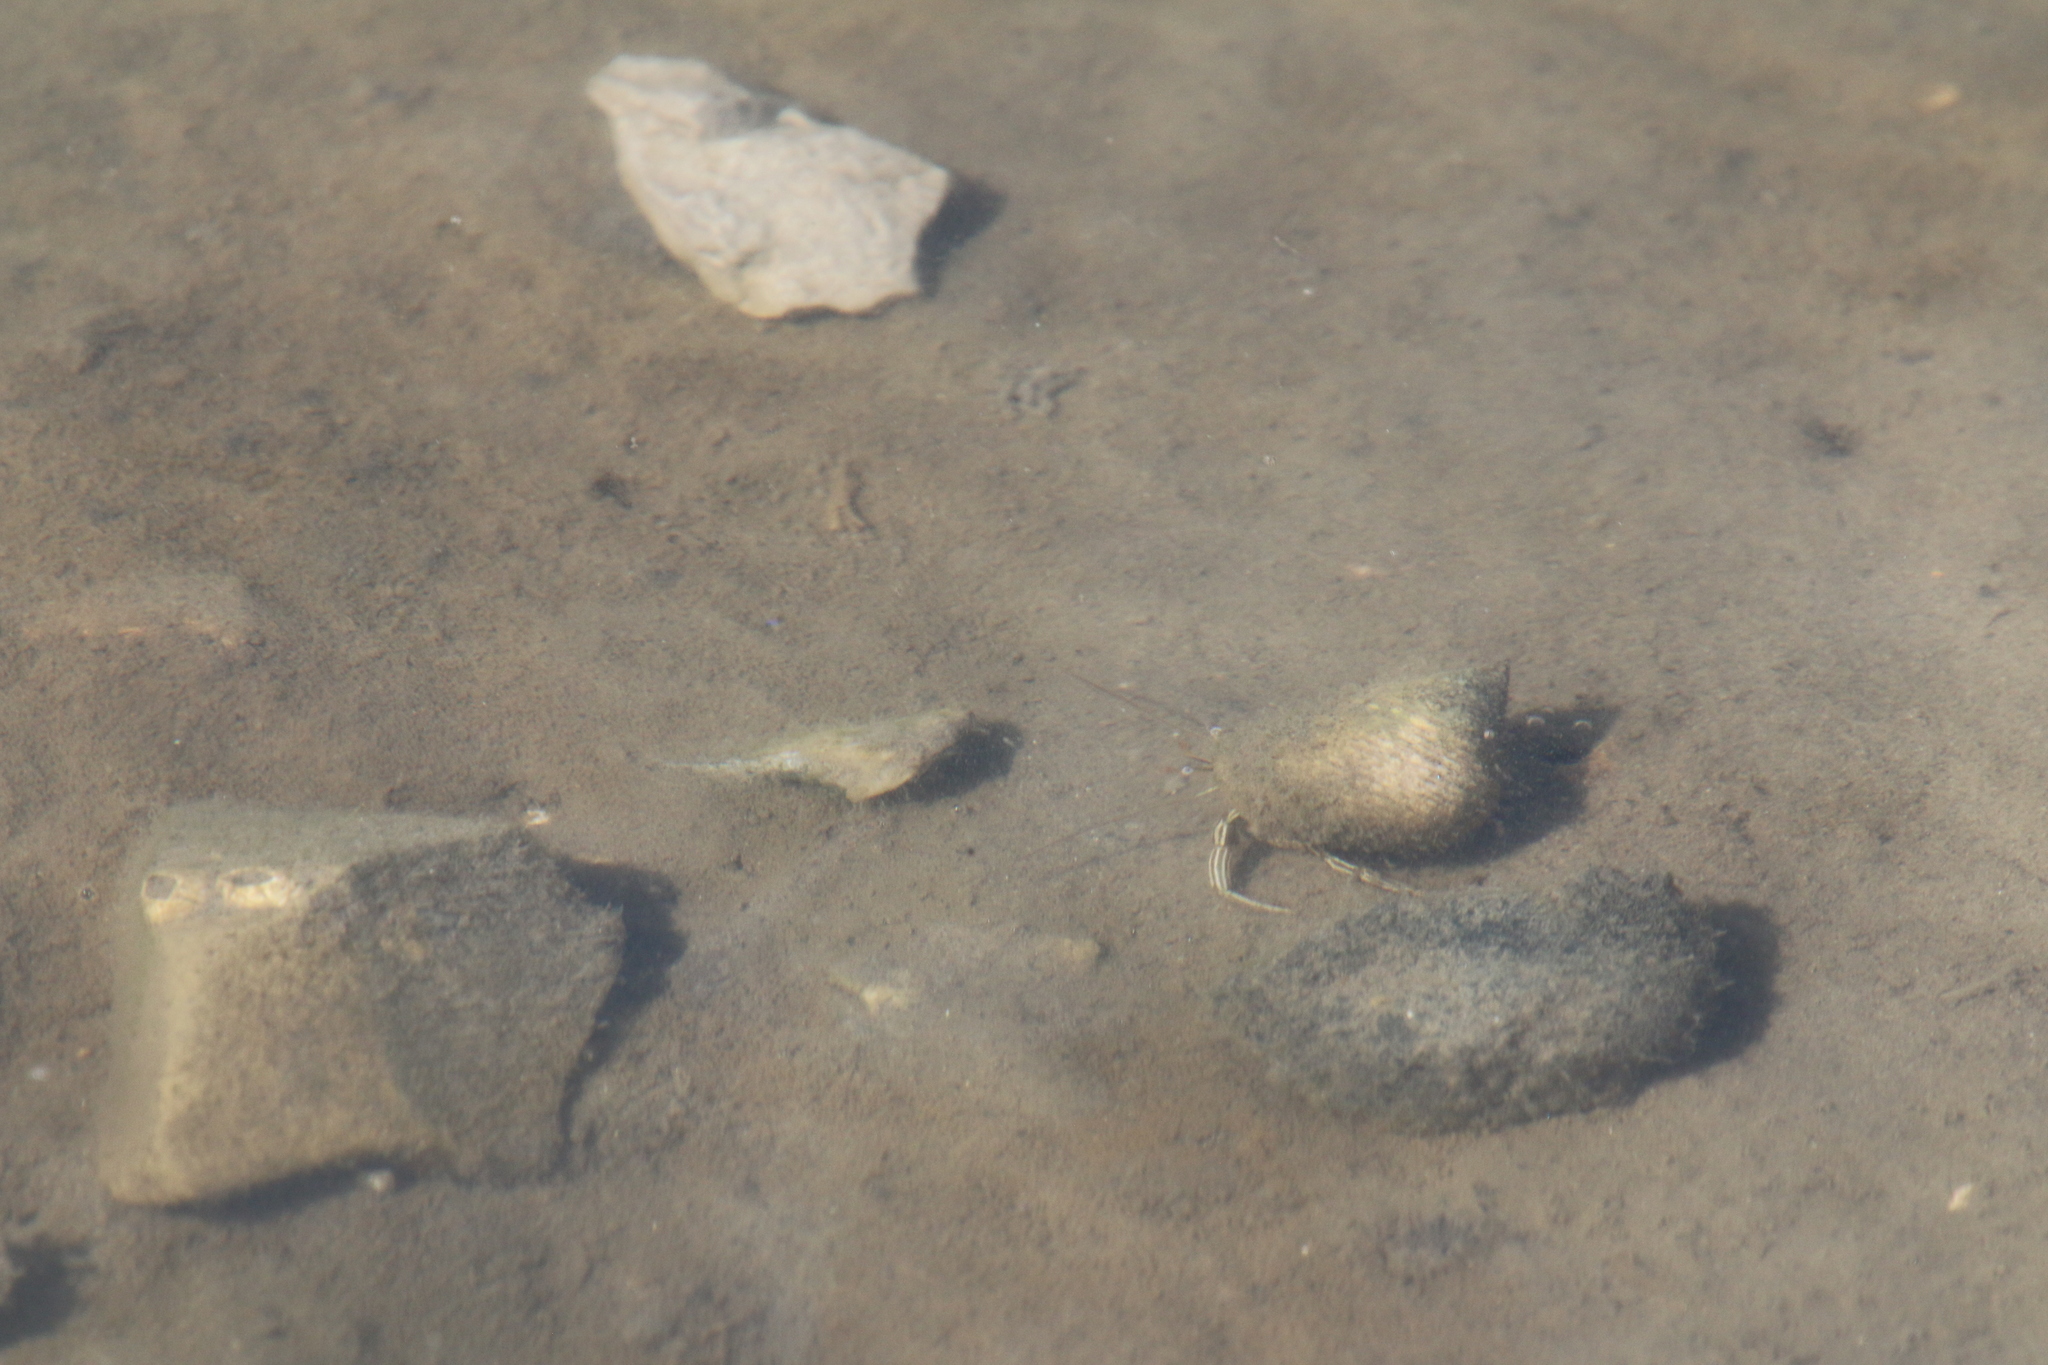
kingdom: Animalia
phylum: Arthropoda
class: Malacostraca
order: Decapoda
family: Diogenidae
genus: Clibanarius
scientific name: Clibanarius vittatus
